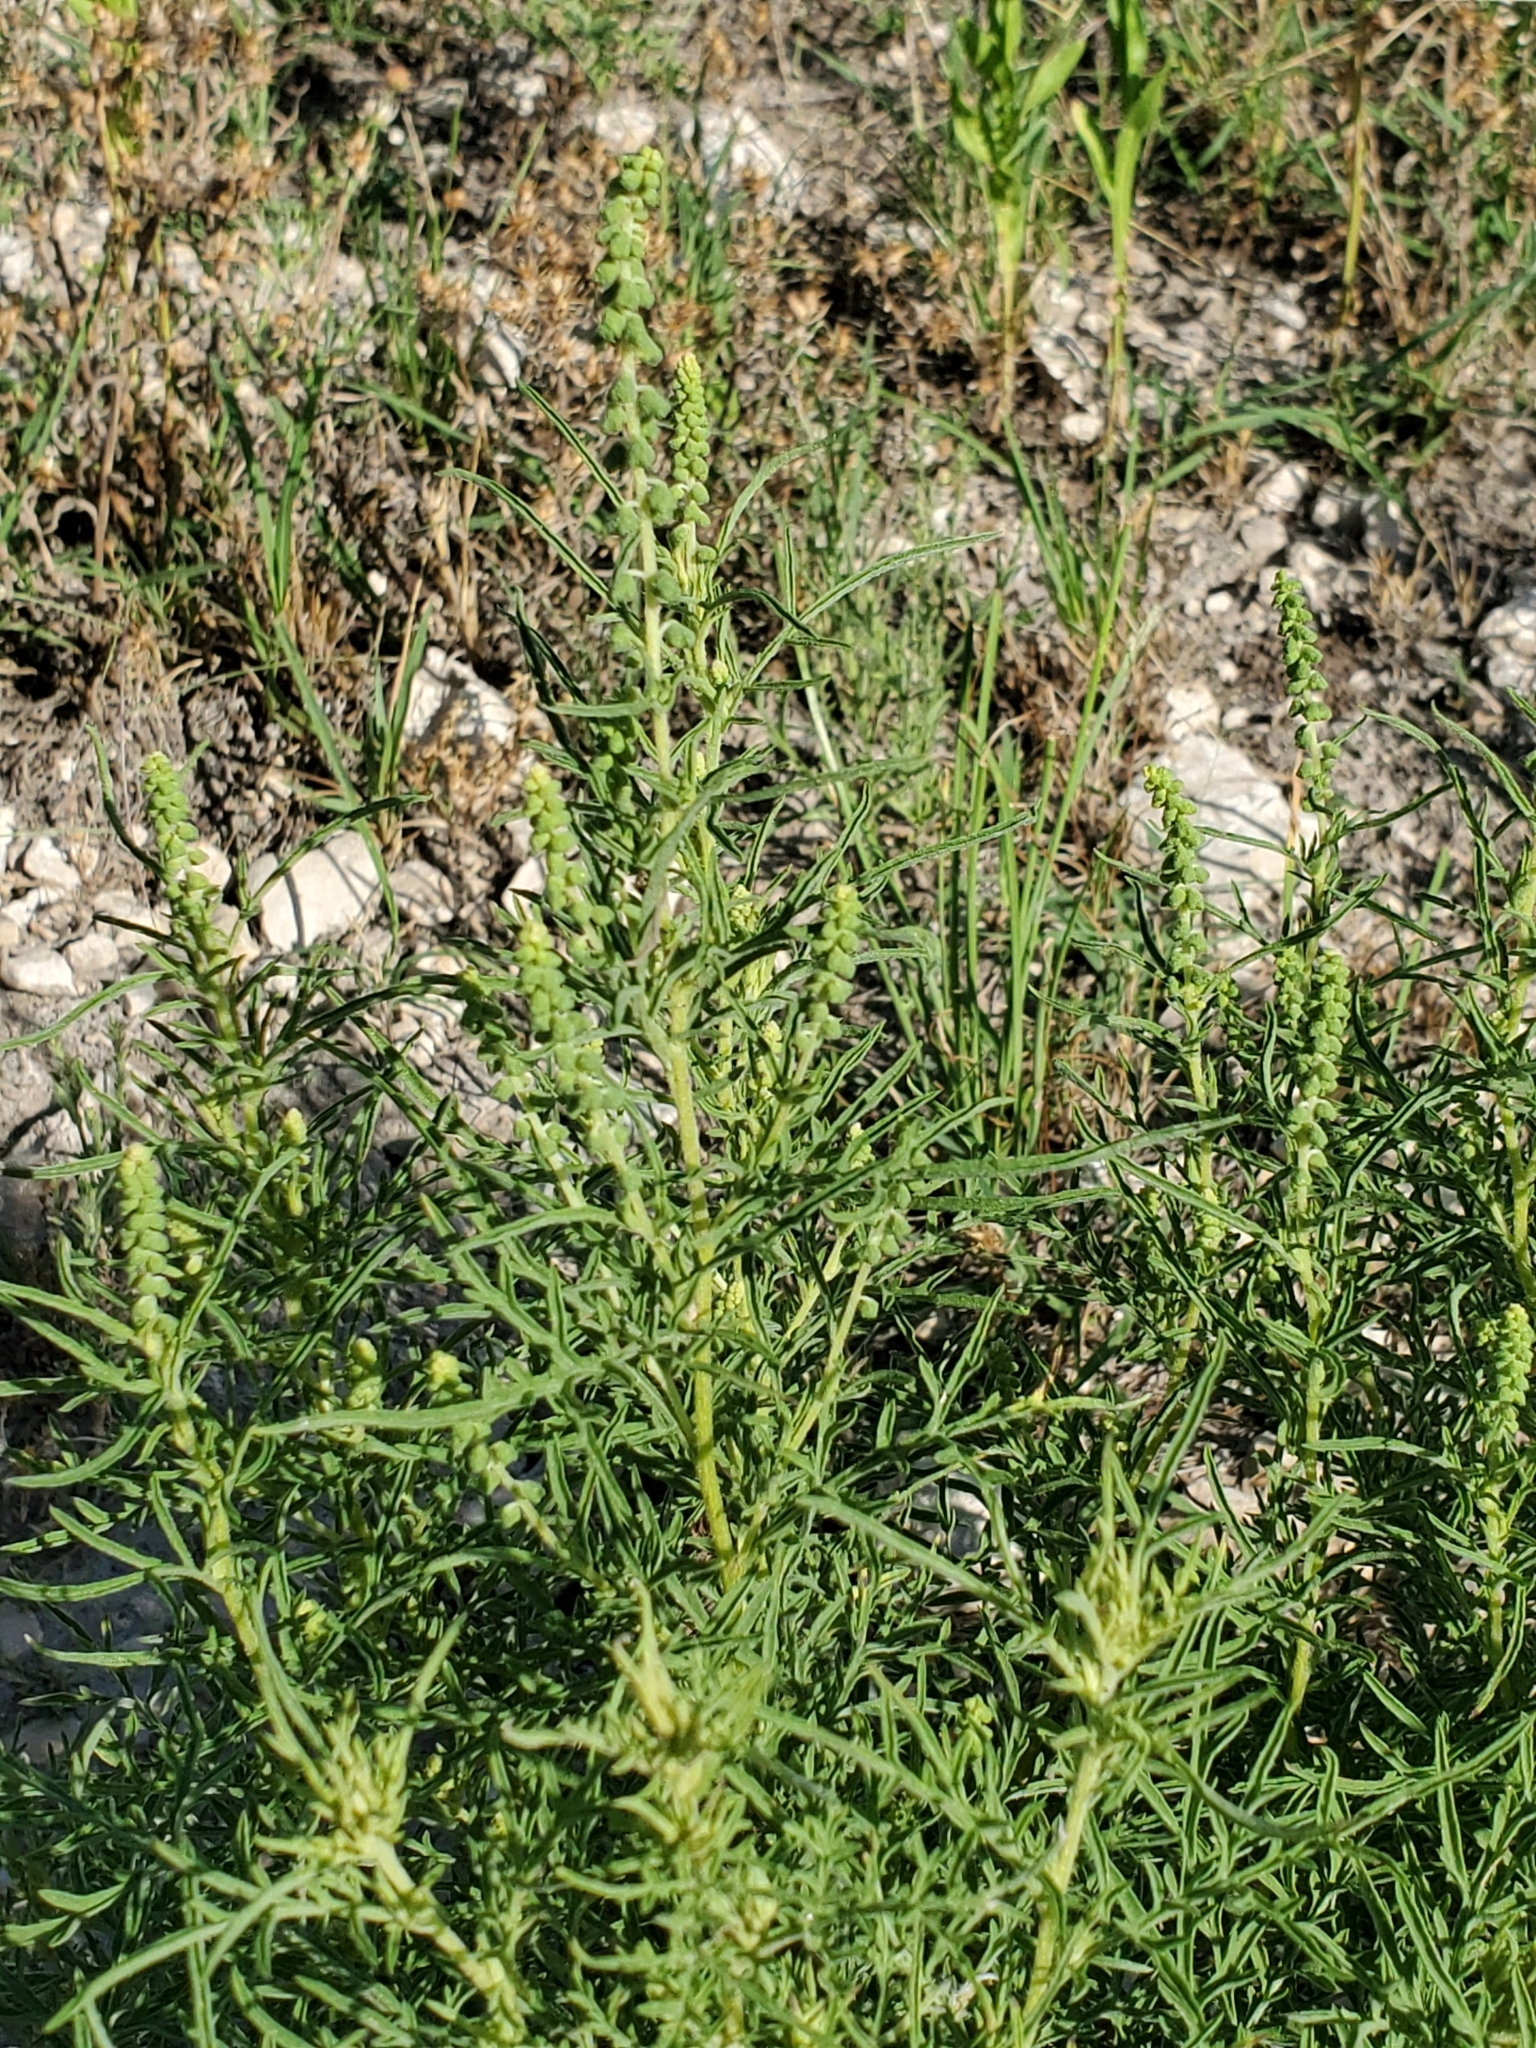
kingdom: Plantae
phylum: Tracheophyta
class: Magnoliopsida
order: Asterales
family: Asteraceae
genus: Ambrosia
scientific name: Ambrosia psilostachya
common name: Perennial ragweed
